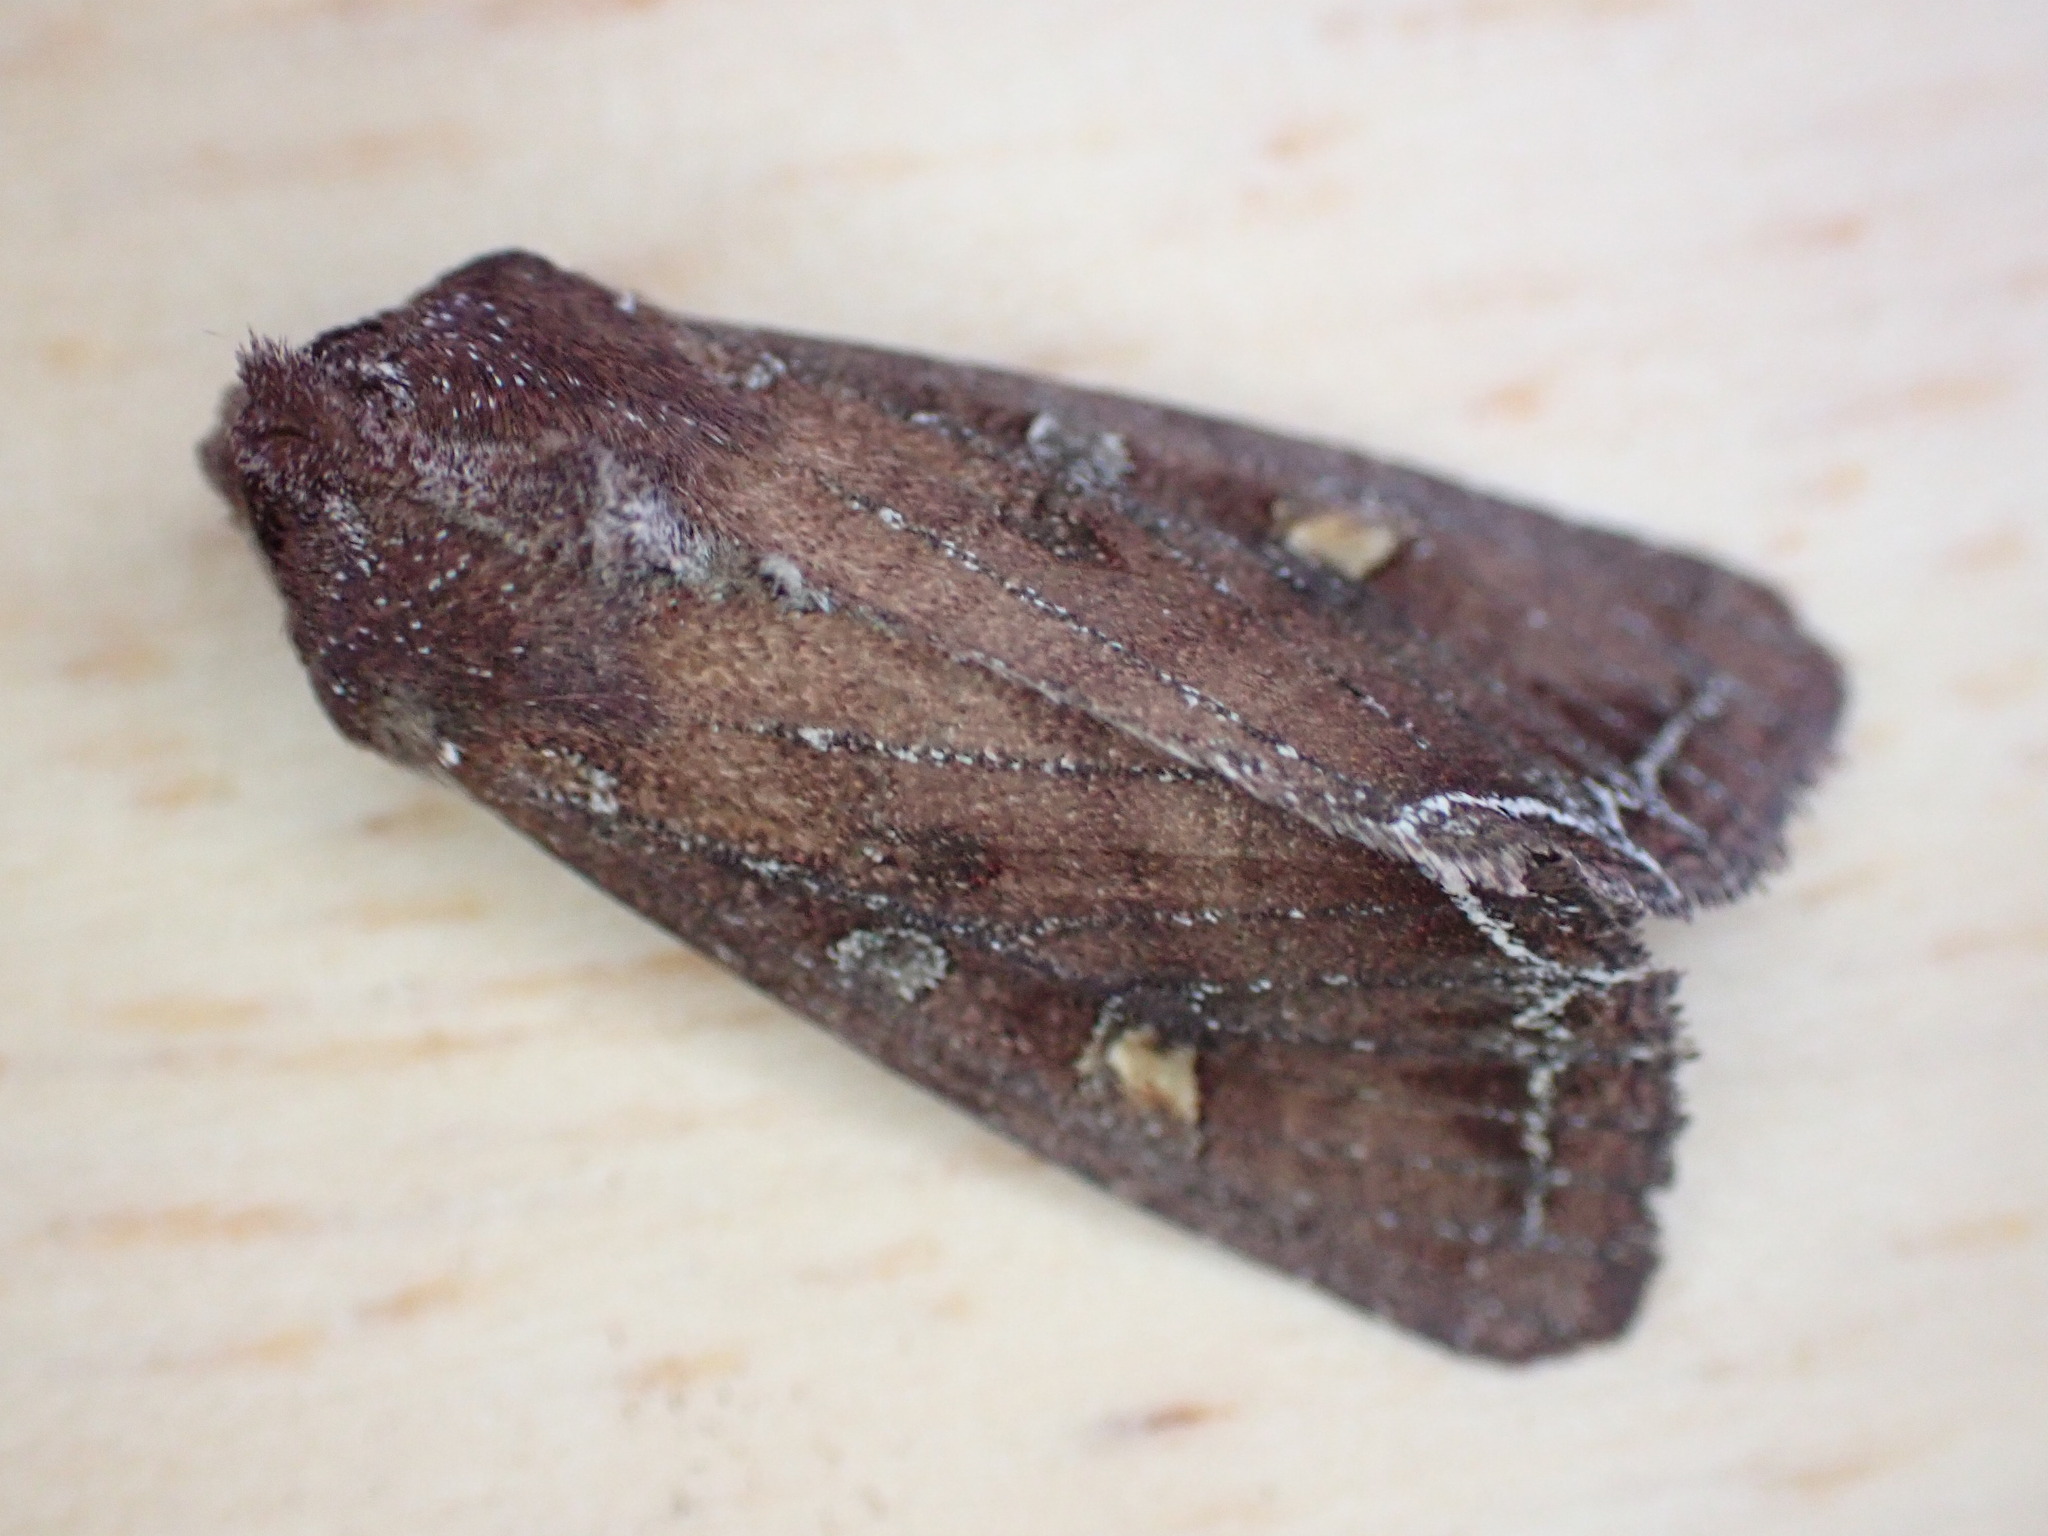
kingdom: Animalia
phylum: Arthropoda
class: Insecta
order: Lepidoptera
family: Noctuidae
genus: Lacanobia
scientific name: Lacanobia oleracea
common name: Bright-line brown-eye
